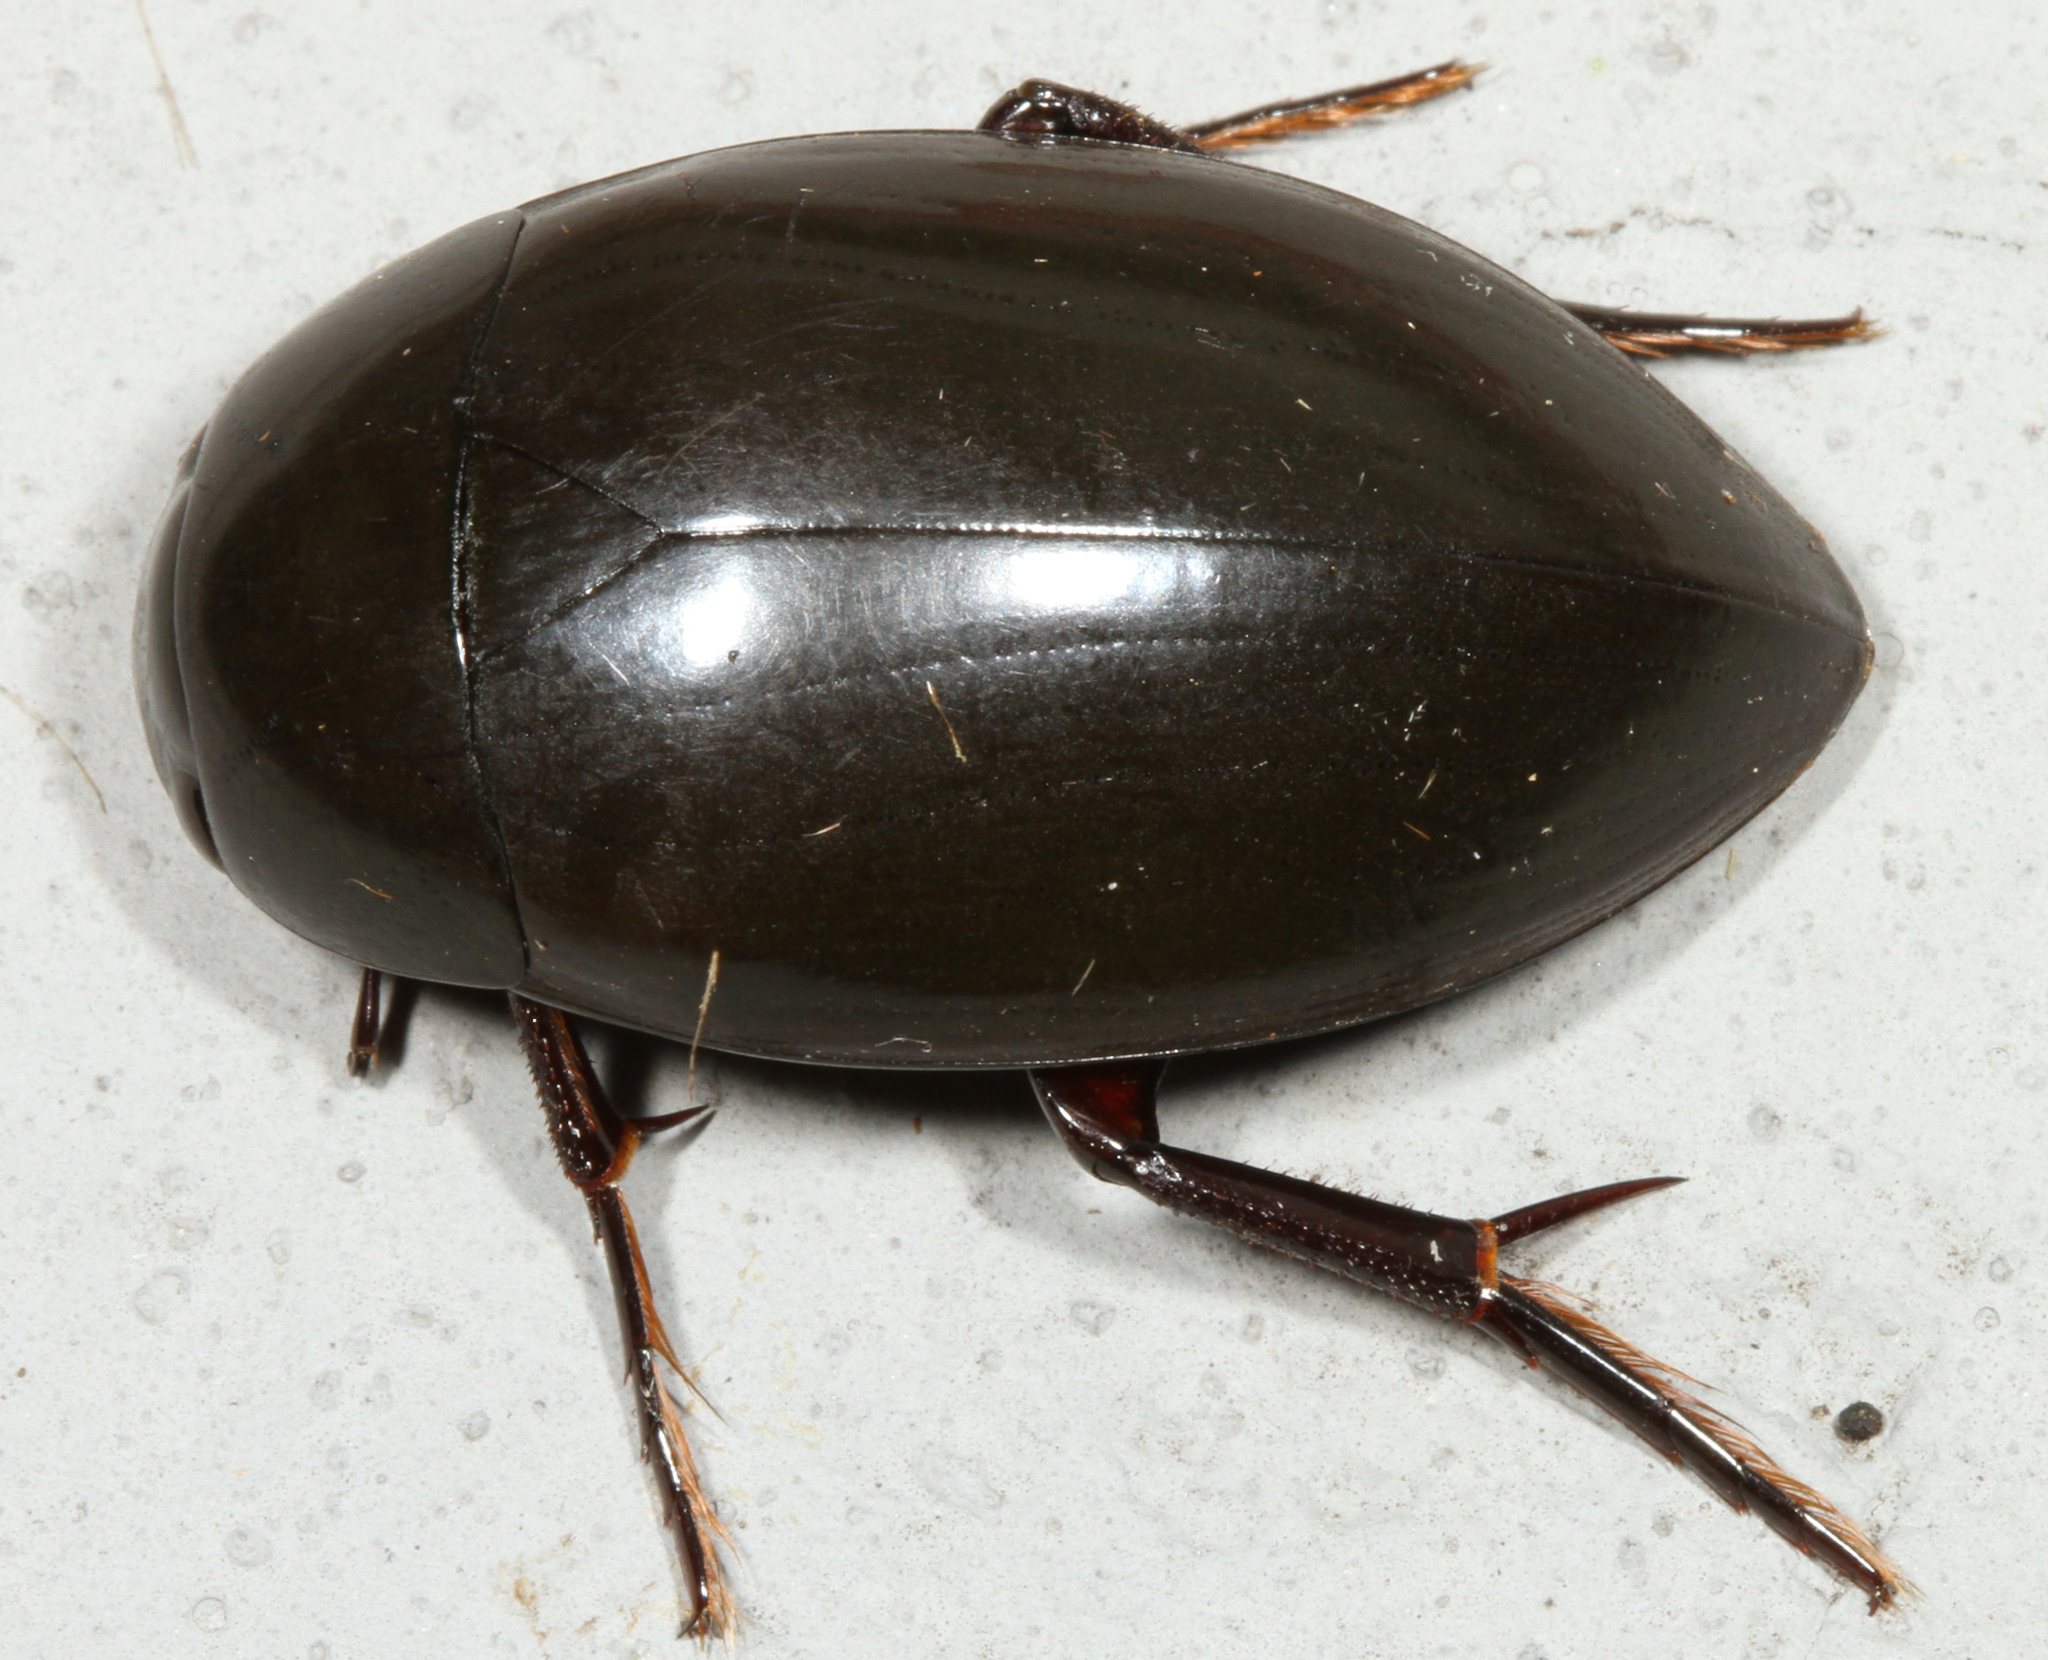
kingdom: Animalia
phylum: Arthropoda
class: Insecta
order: Coleoptera
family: Hydrophilidae
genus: Hydrophilus
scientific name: Hydrophilus ovatus
